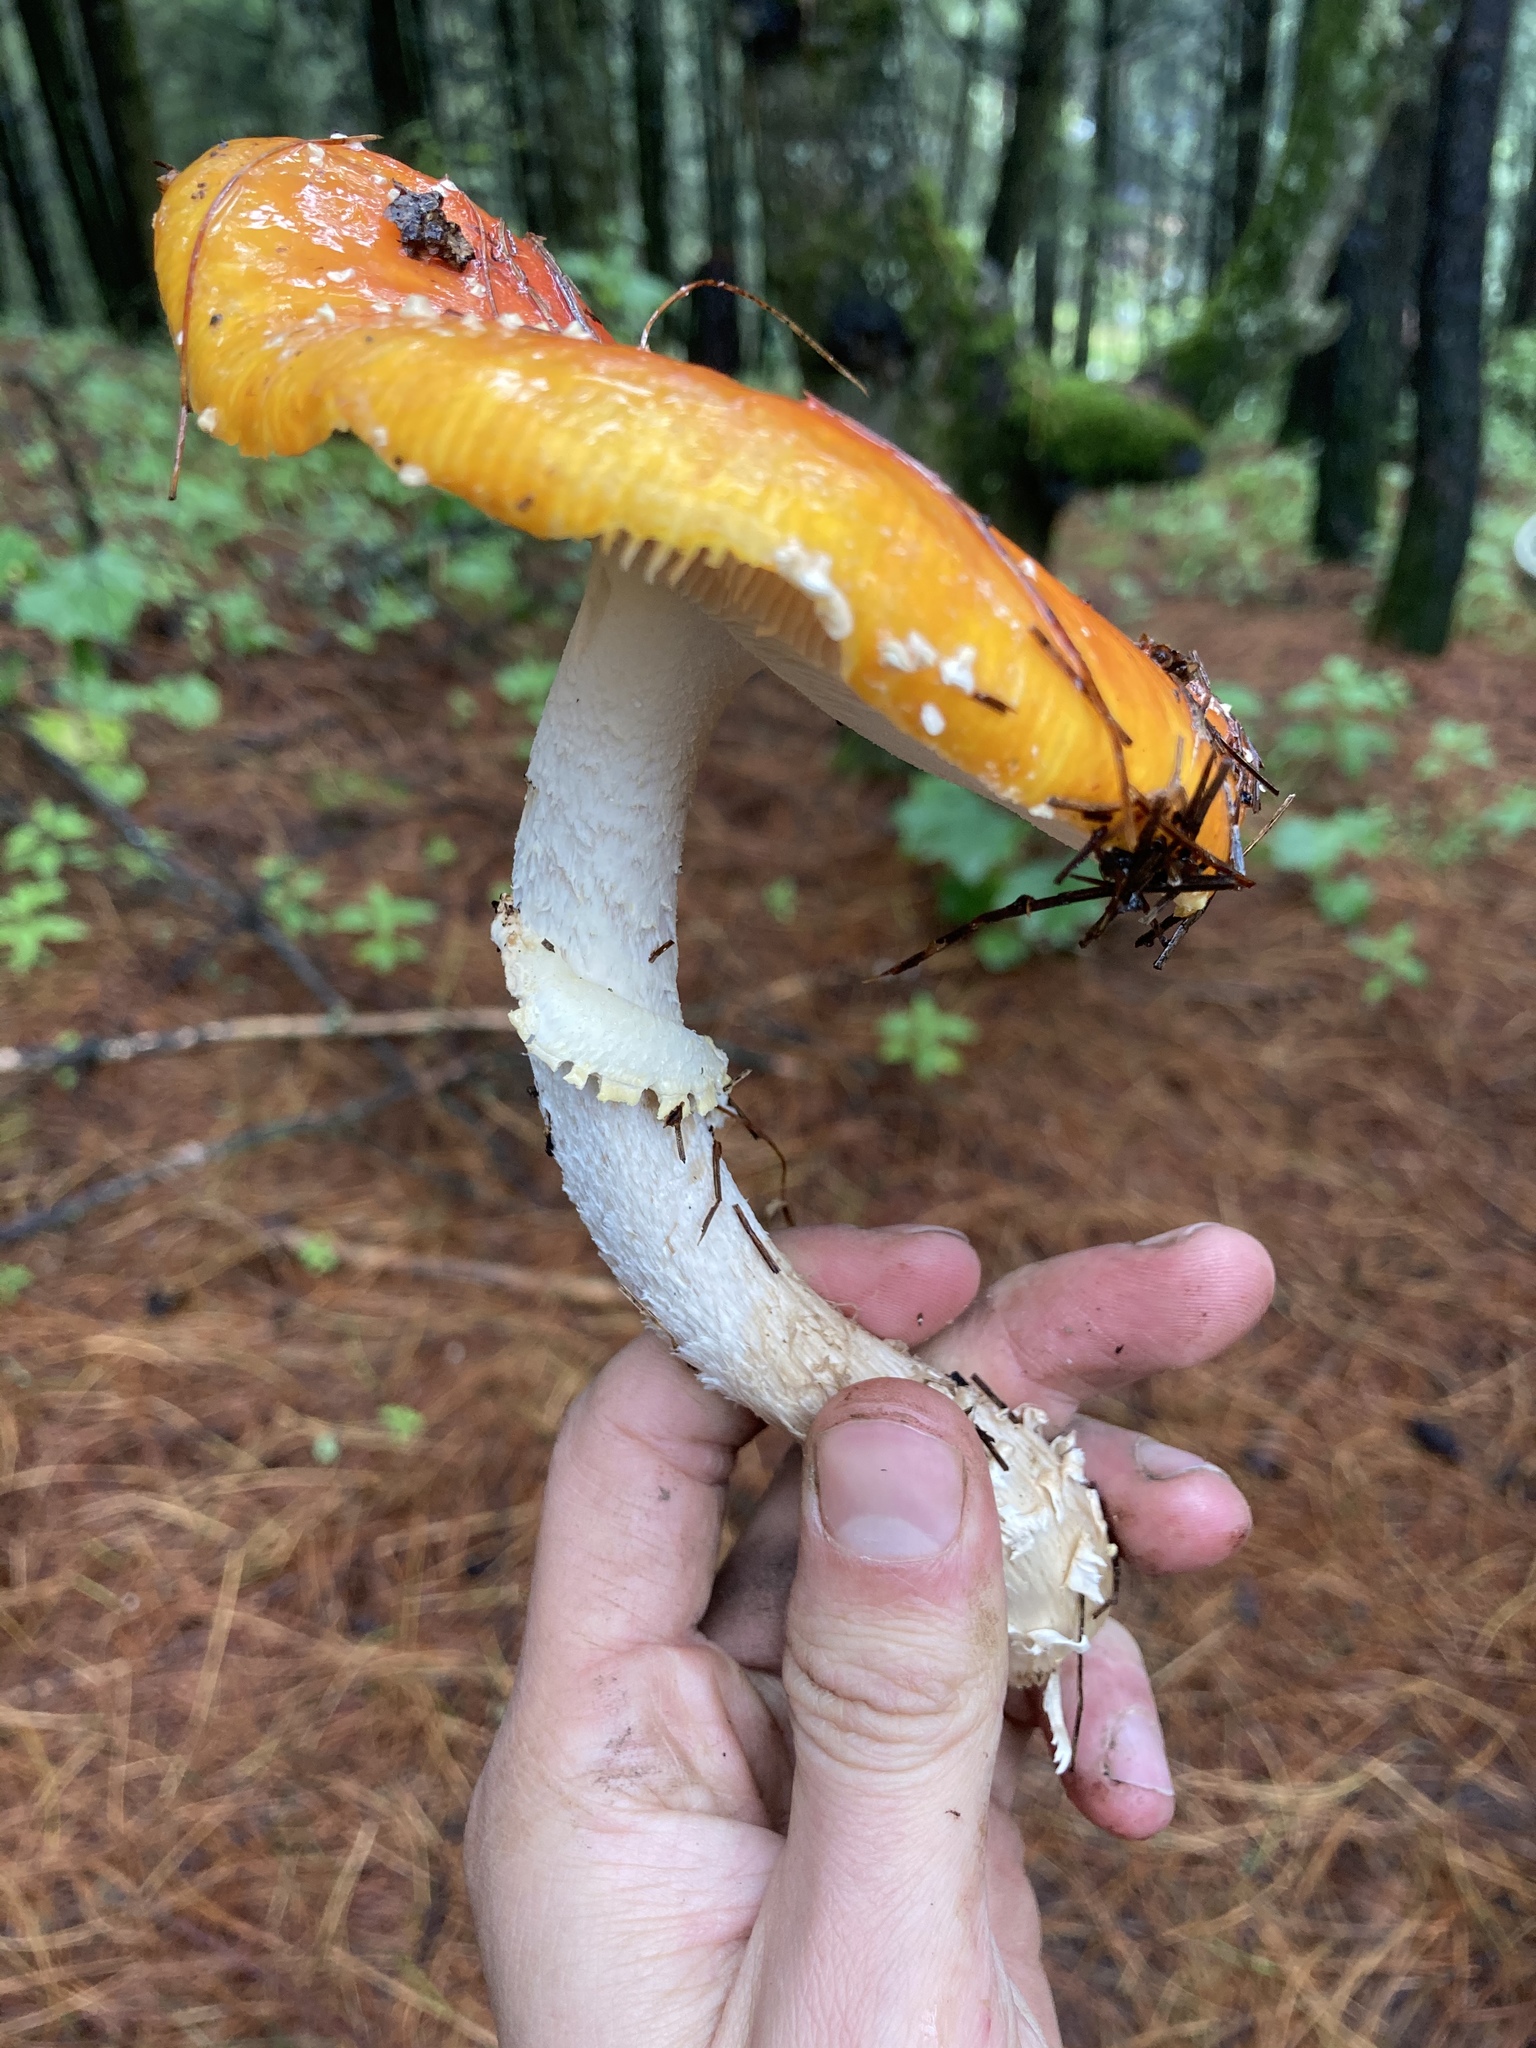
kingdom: Fungi
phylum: Basidiomycota
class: Agaricomycetes
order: Agaricales
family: Amanitaceae
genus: Amanita
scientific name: Amanita muscaria
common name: Fly agaric
